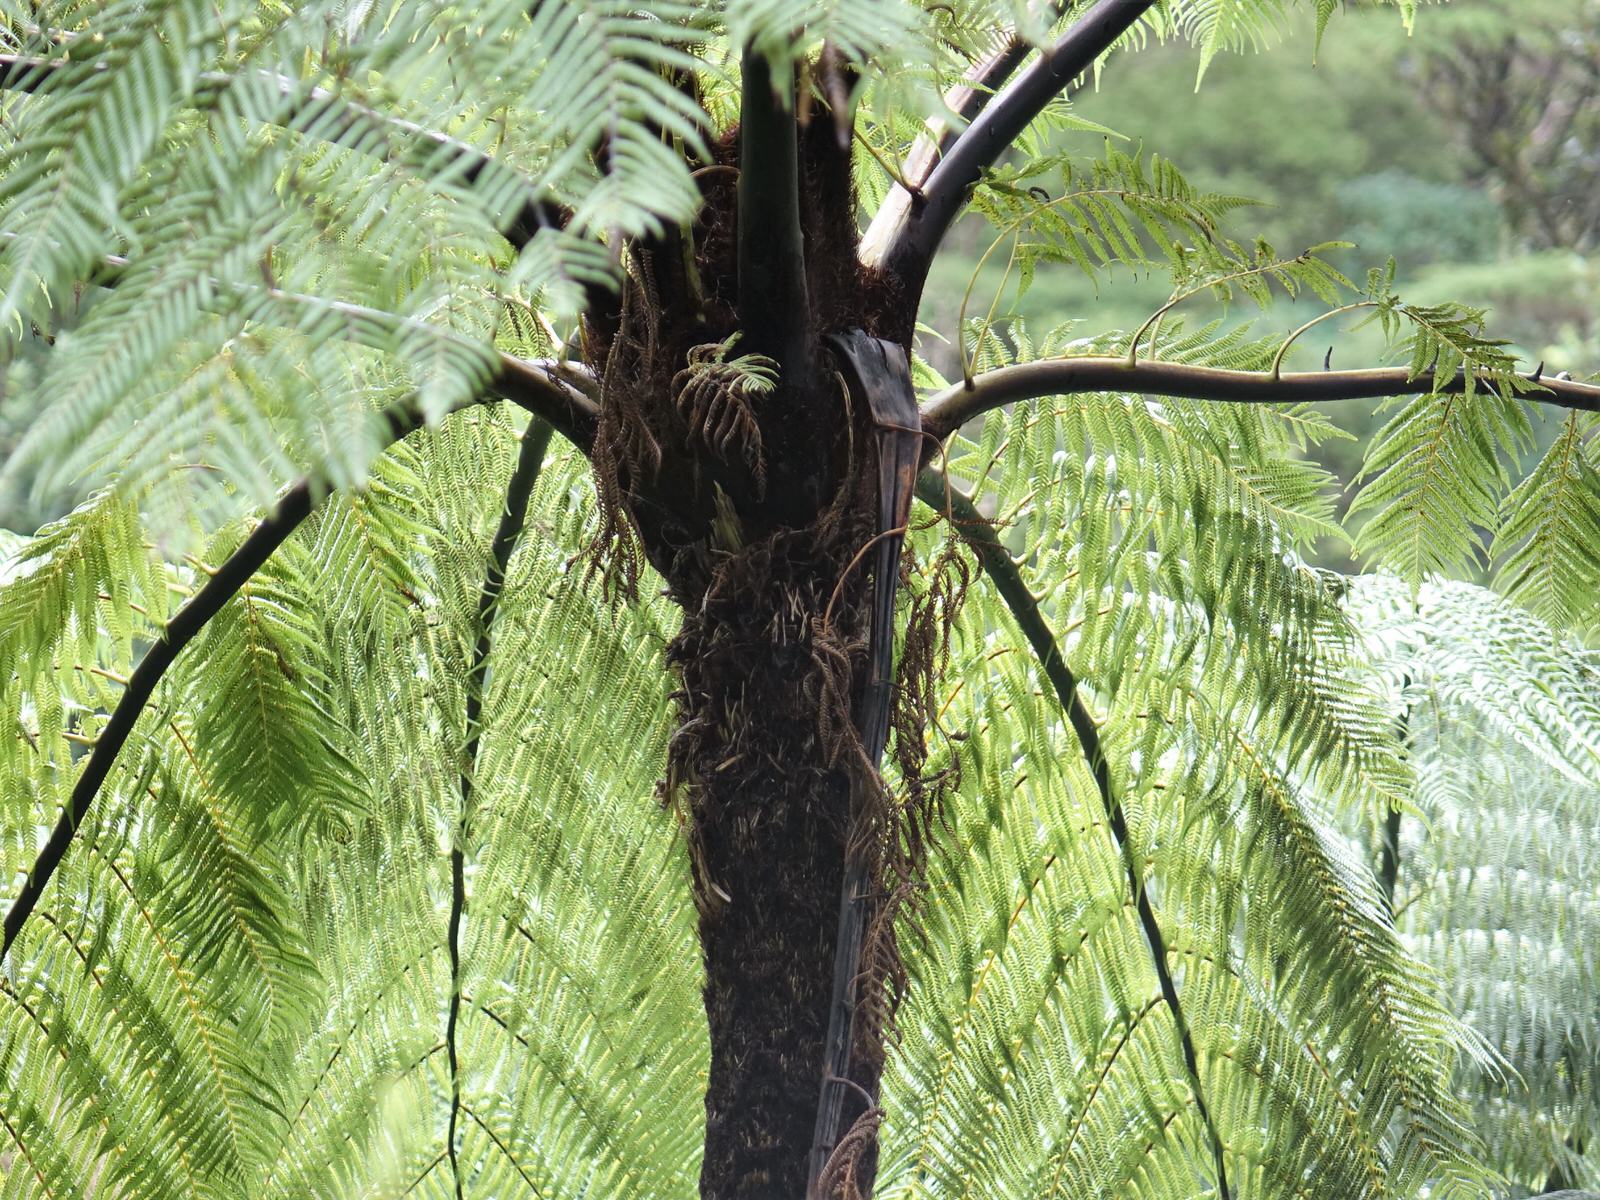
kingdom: Plantae
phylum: Tracheophyta
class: Polypodiopsida
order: Cyatheales
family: Cyatheaceae
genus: Sphaeropteris
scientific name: Sphaeropteris medullaris
